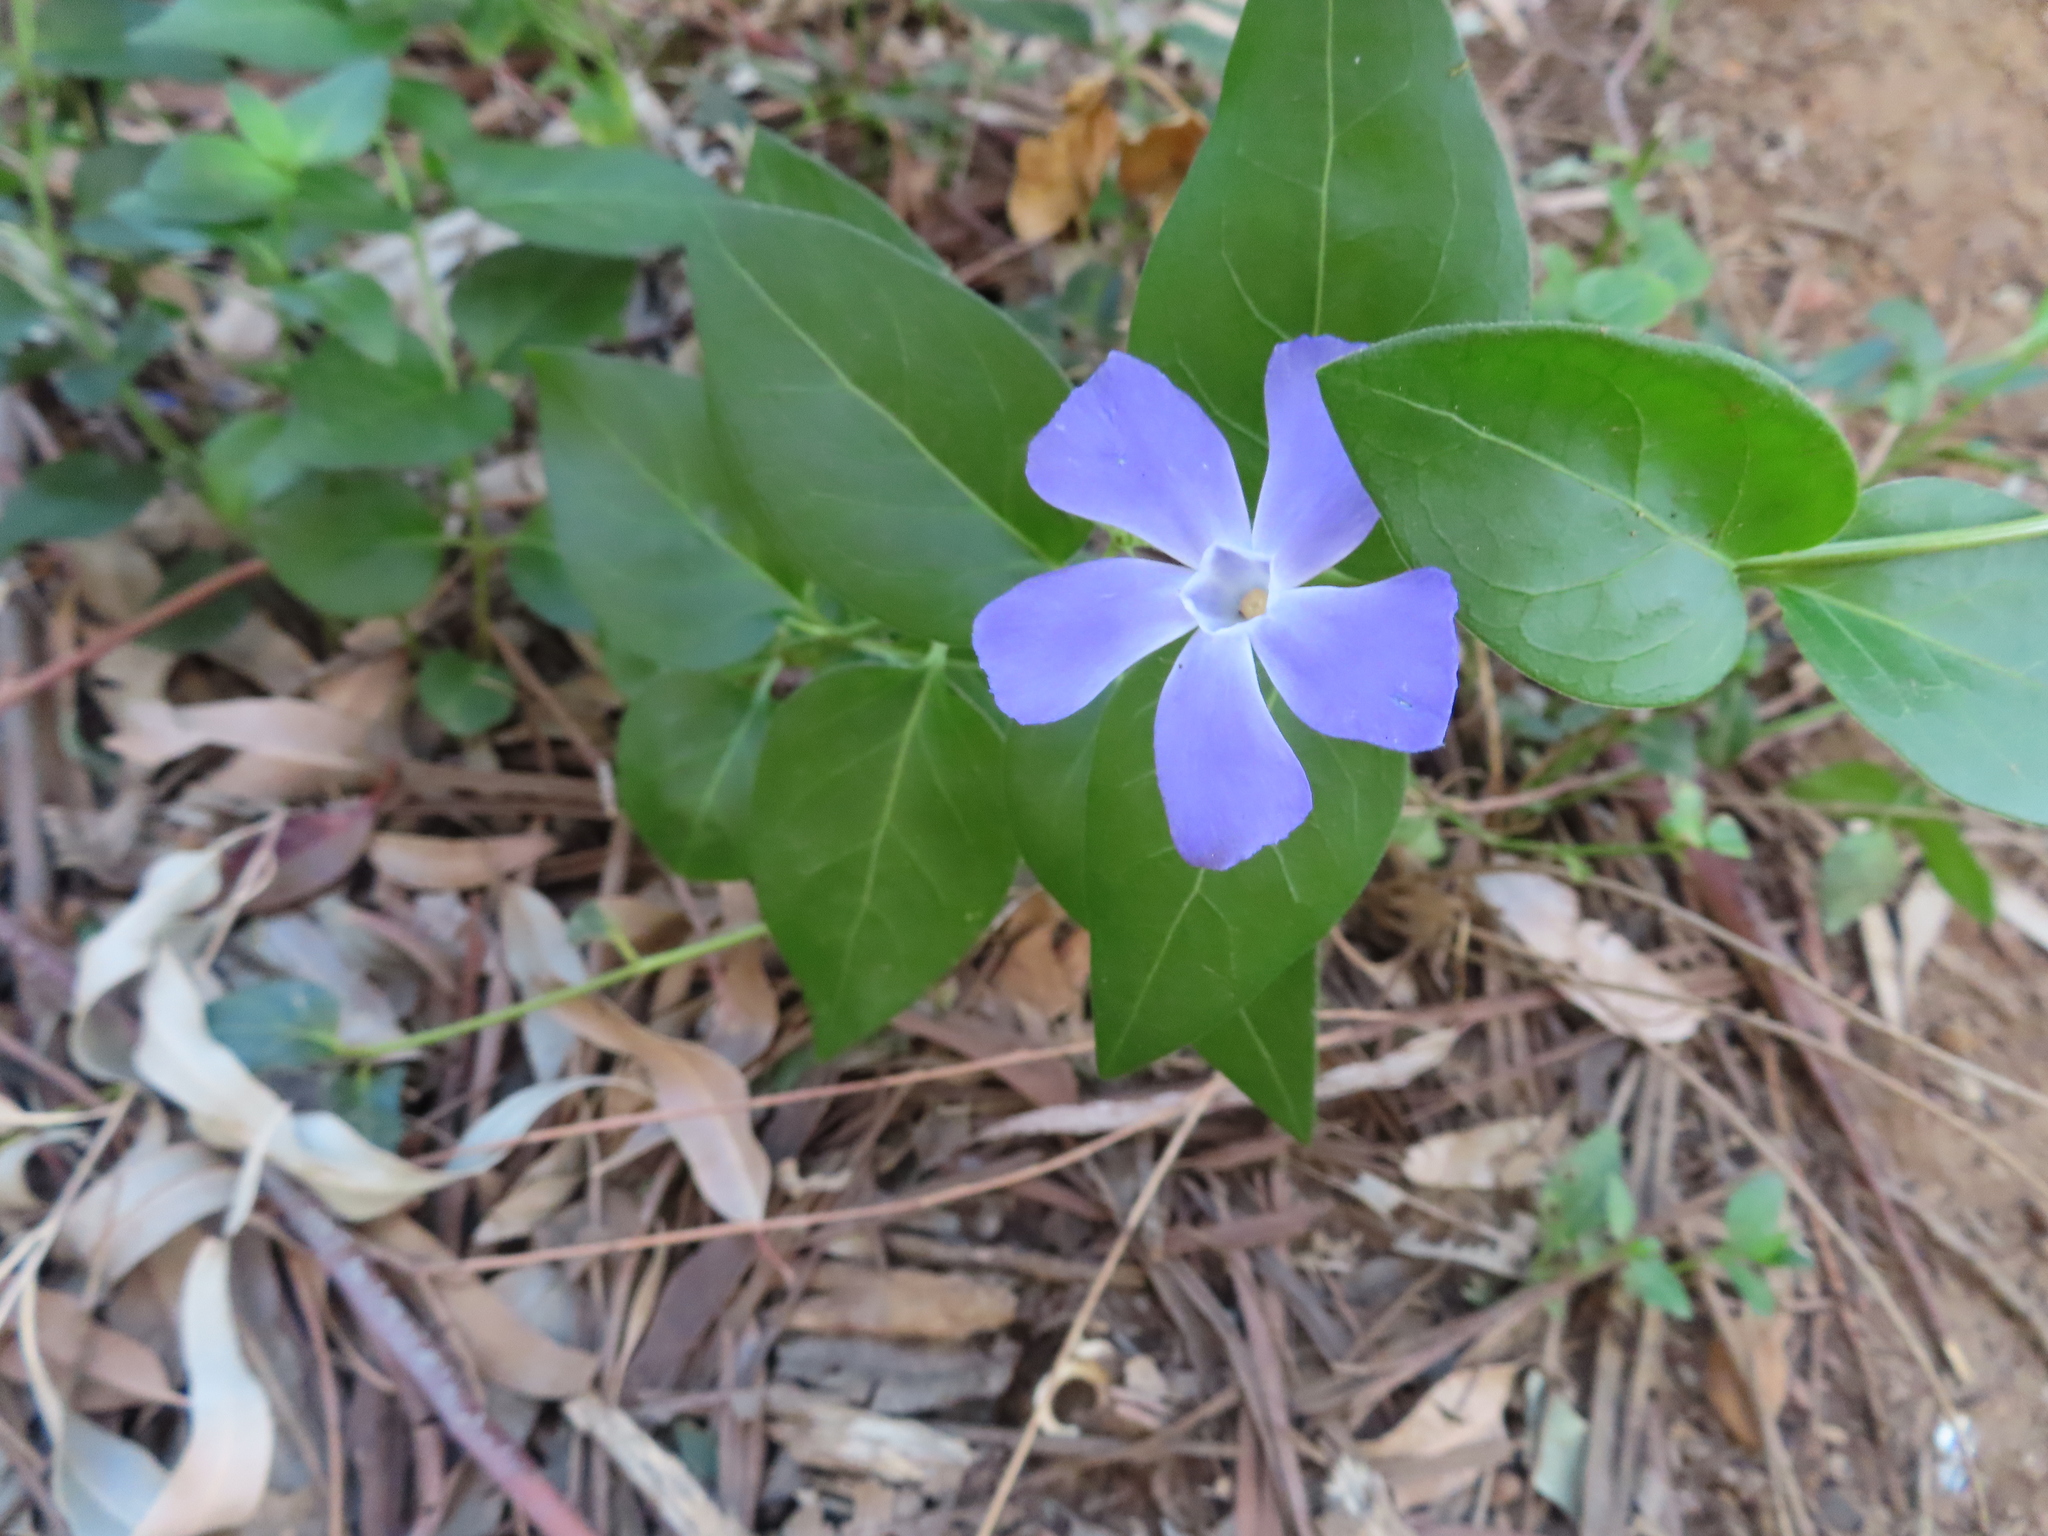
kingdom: Plantae
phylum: Tracheophyta
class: Magnoliopsida
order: Gentianales
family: Apocynaceae
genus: Vinca
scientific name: Vinca major
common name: Greater periwinkle
